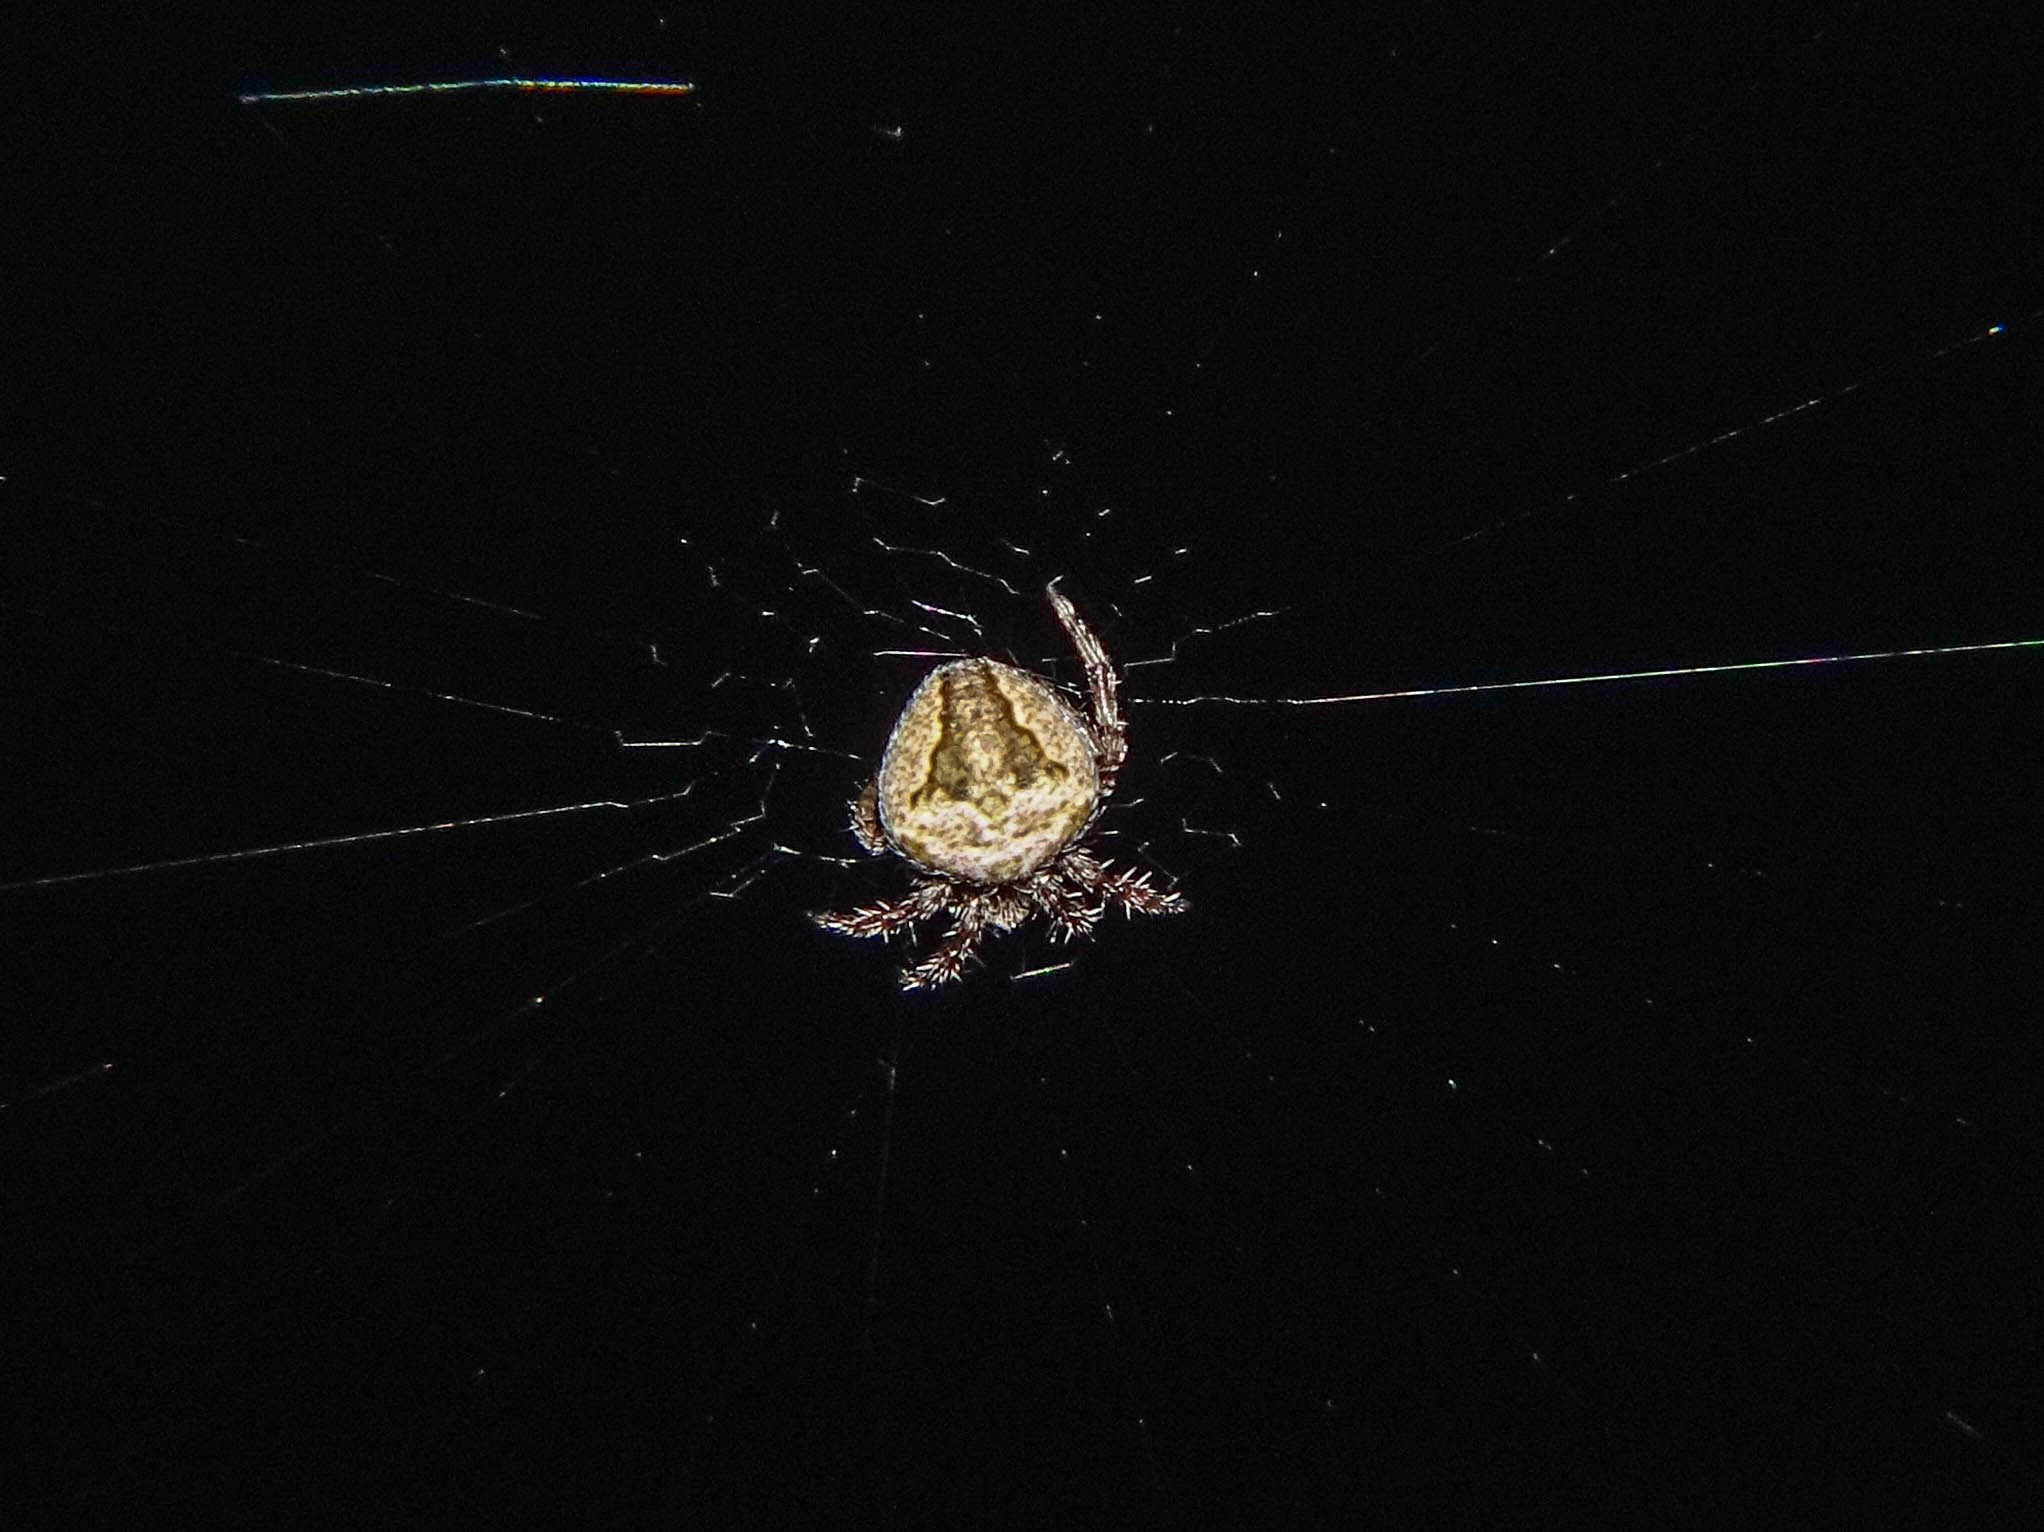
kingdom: Animalia
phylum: Arthropoda
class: Arachnida
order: Araneae
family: Araneidae
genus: Neoscona
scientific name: Neoscona subfusca
